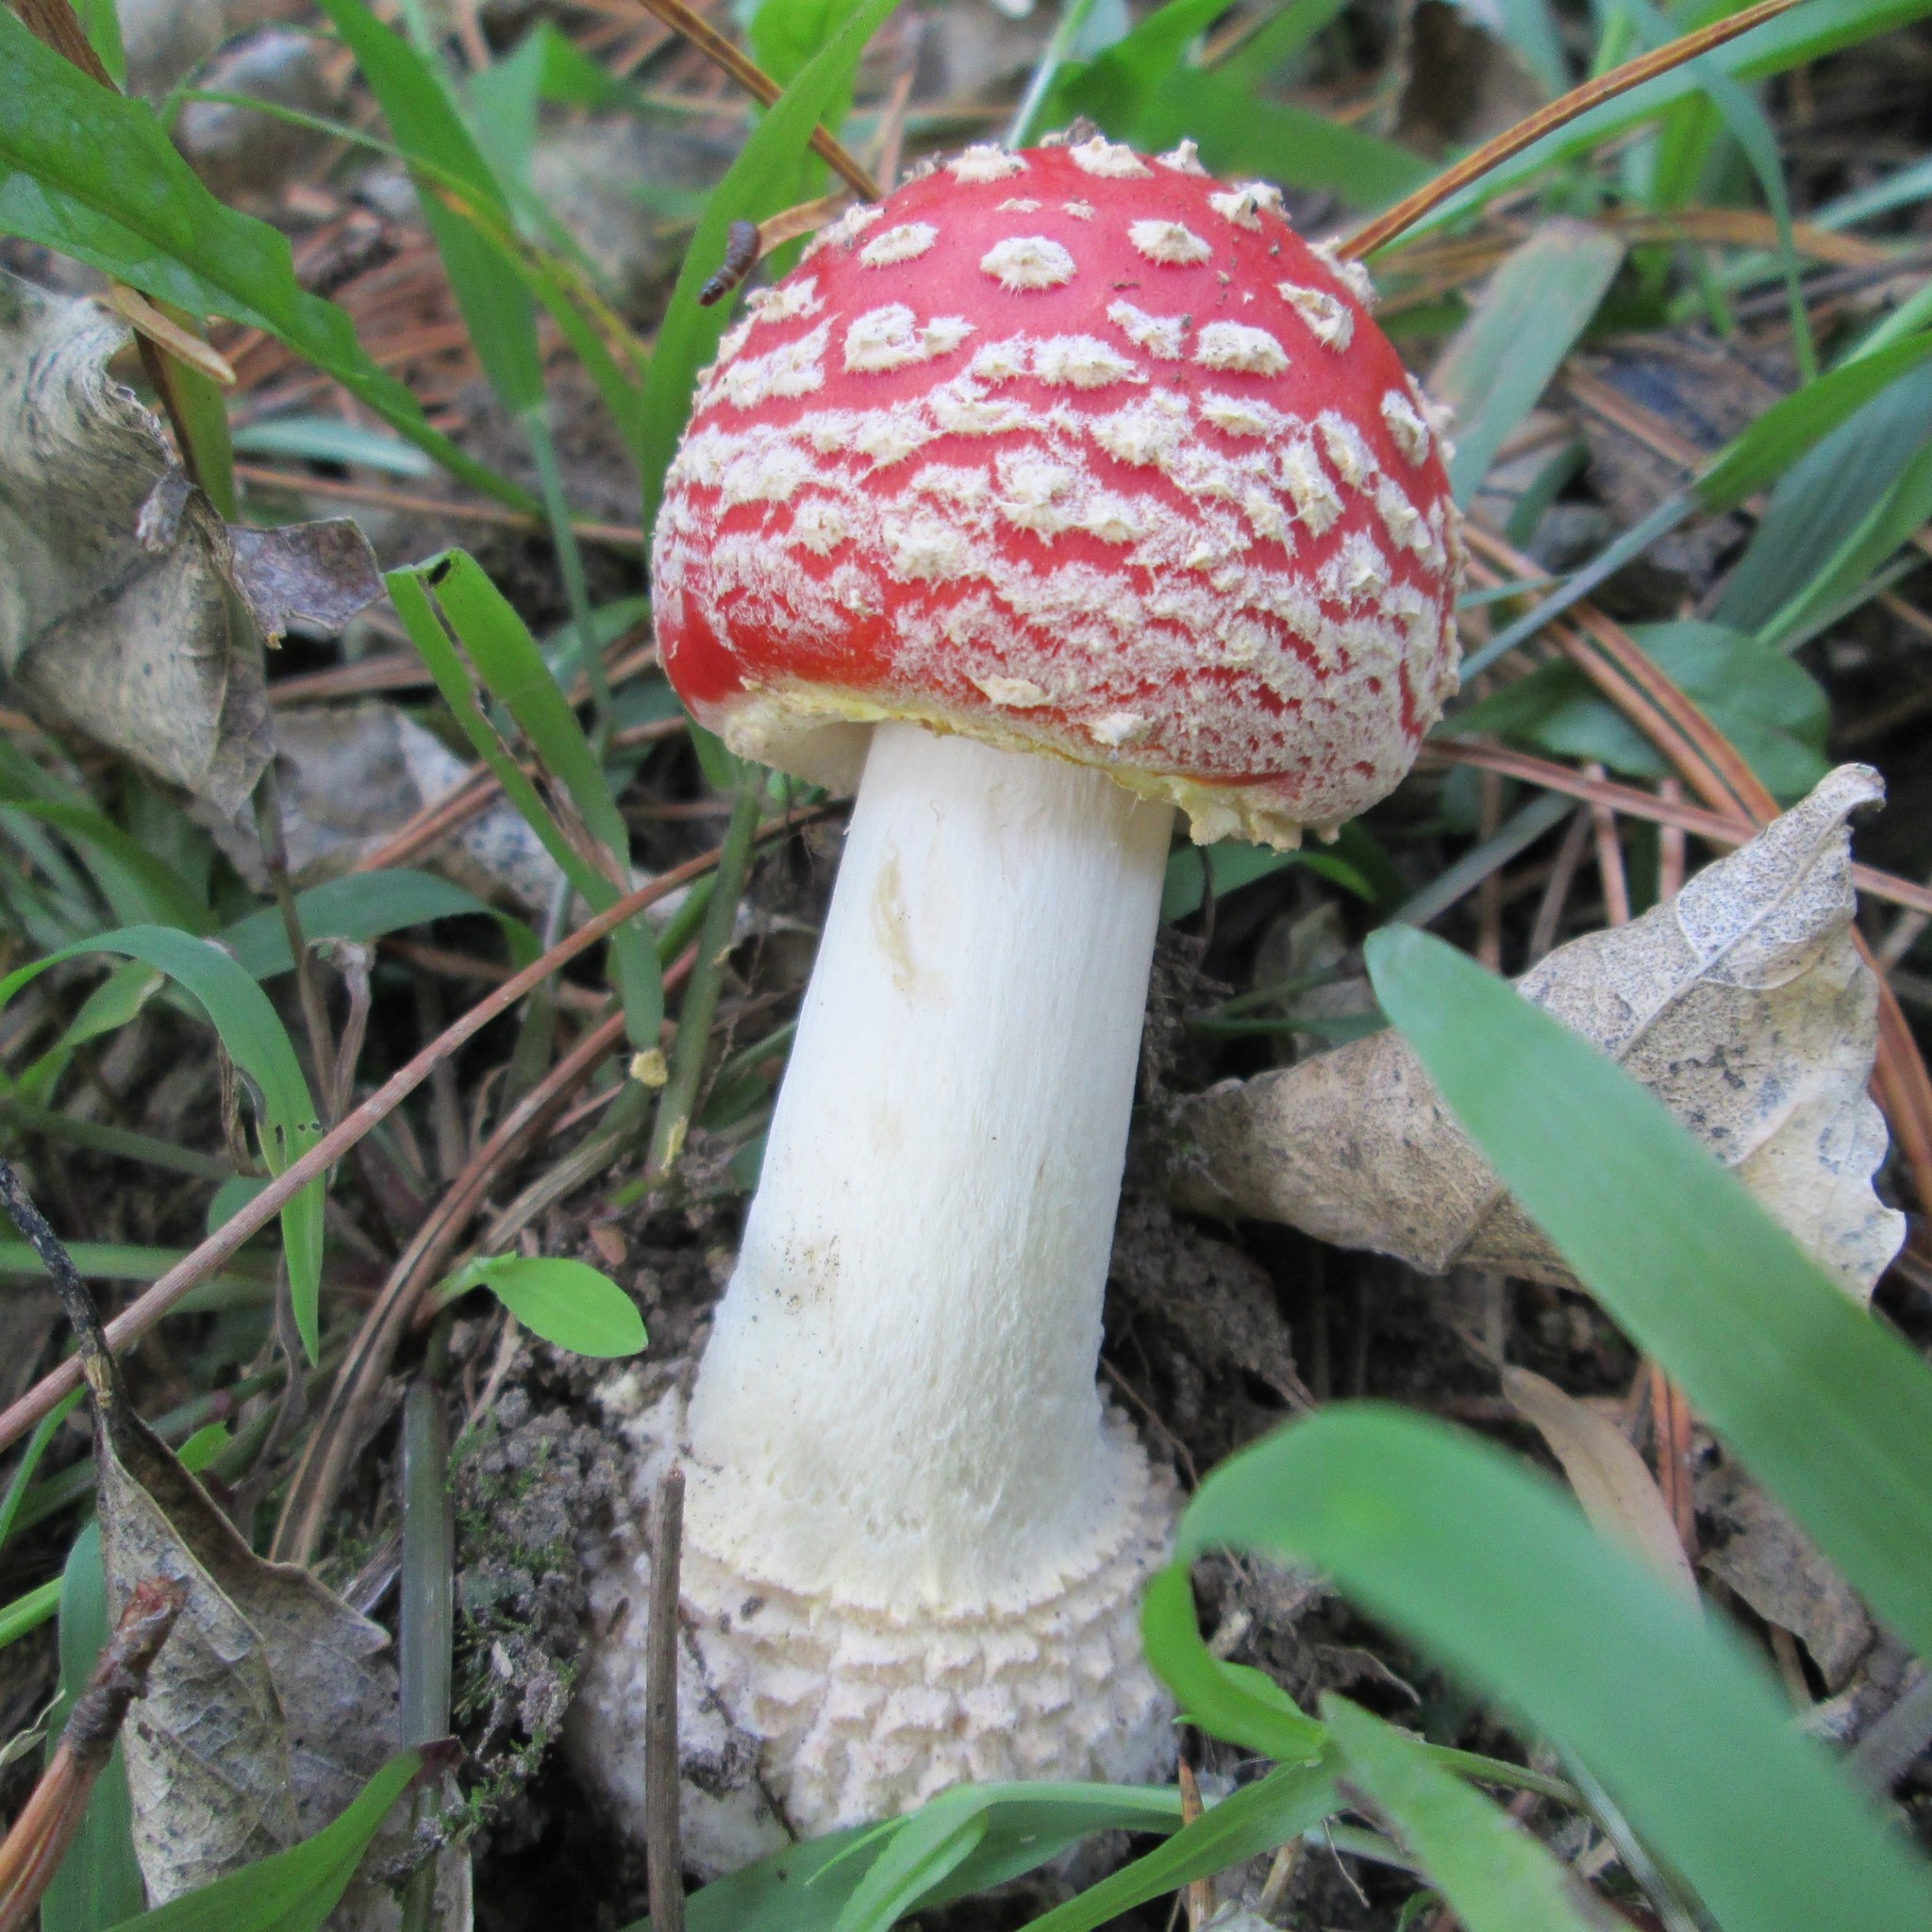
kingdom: Fungi
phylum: Basidiomycota
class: Agaricomycetes
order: Agaricales
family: Amanitaceae
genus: Amanita
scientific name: Amanita muscaria
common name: Fly agaric
